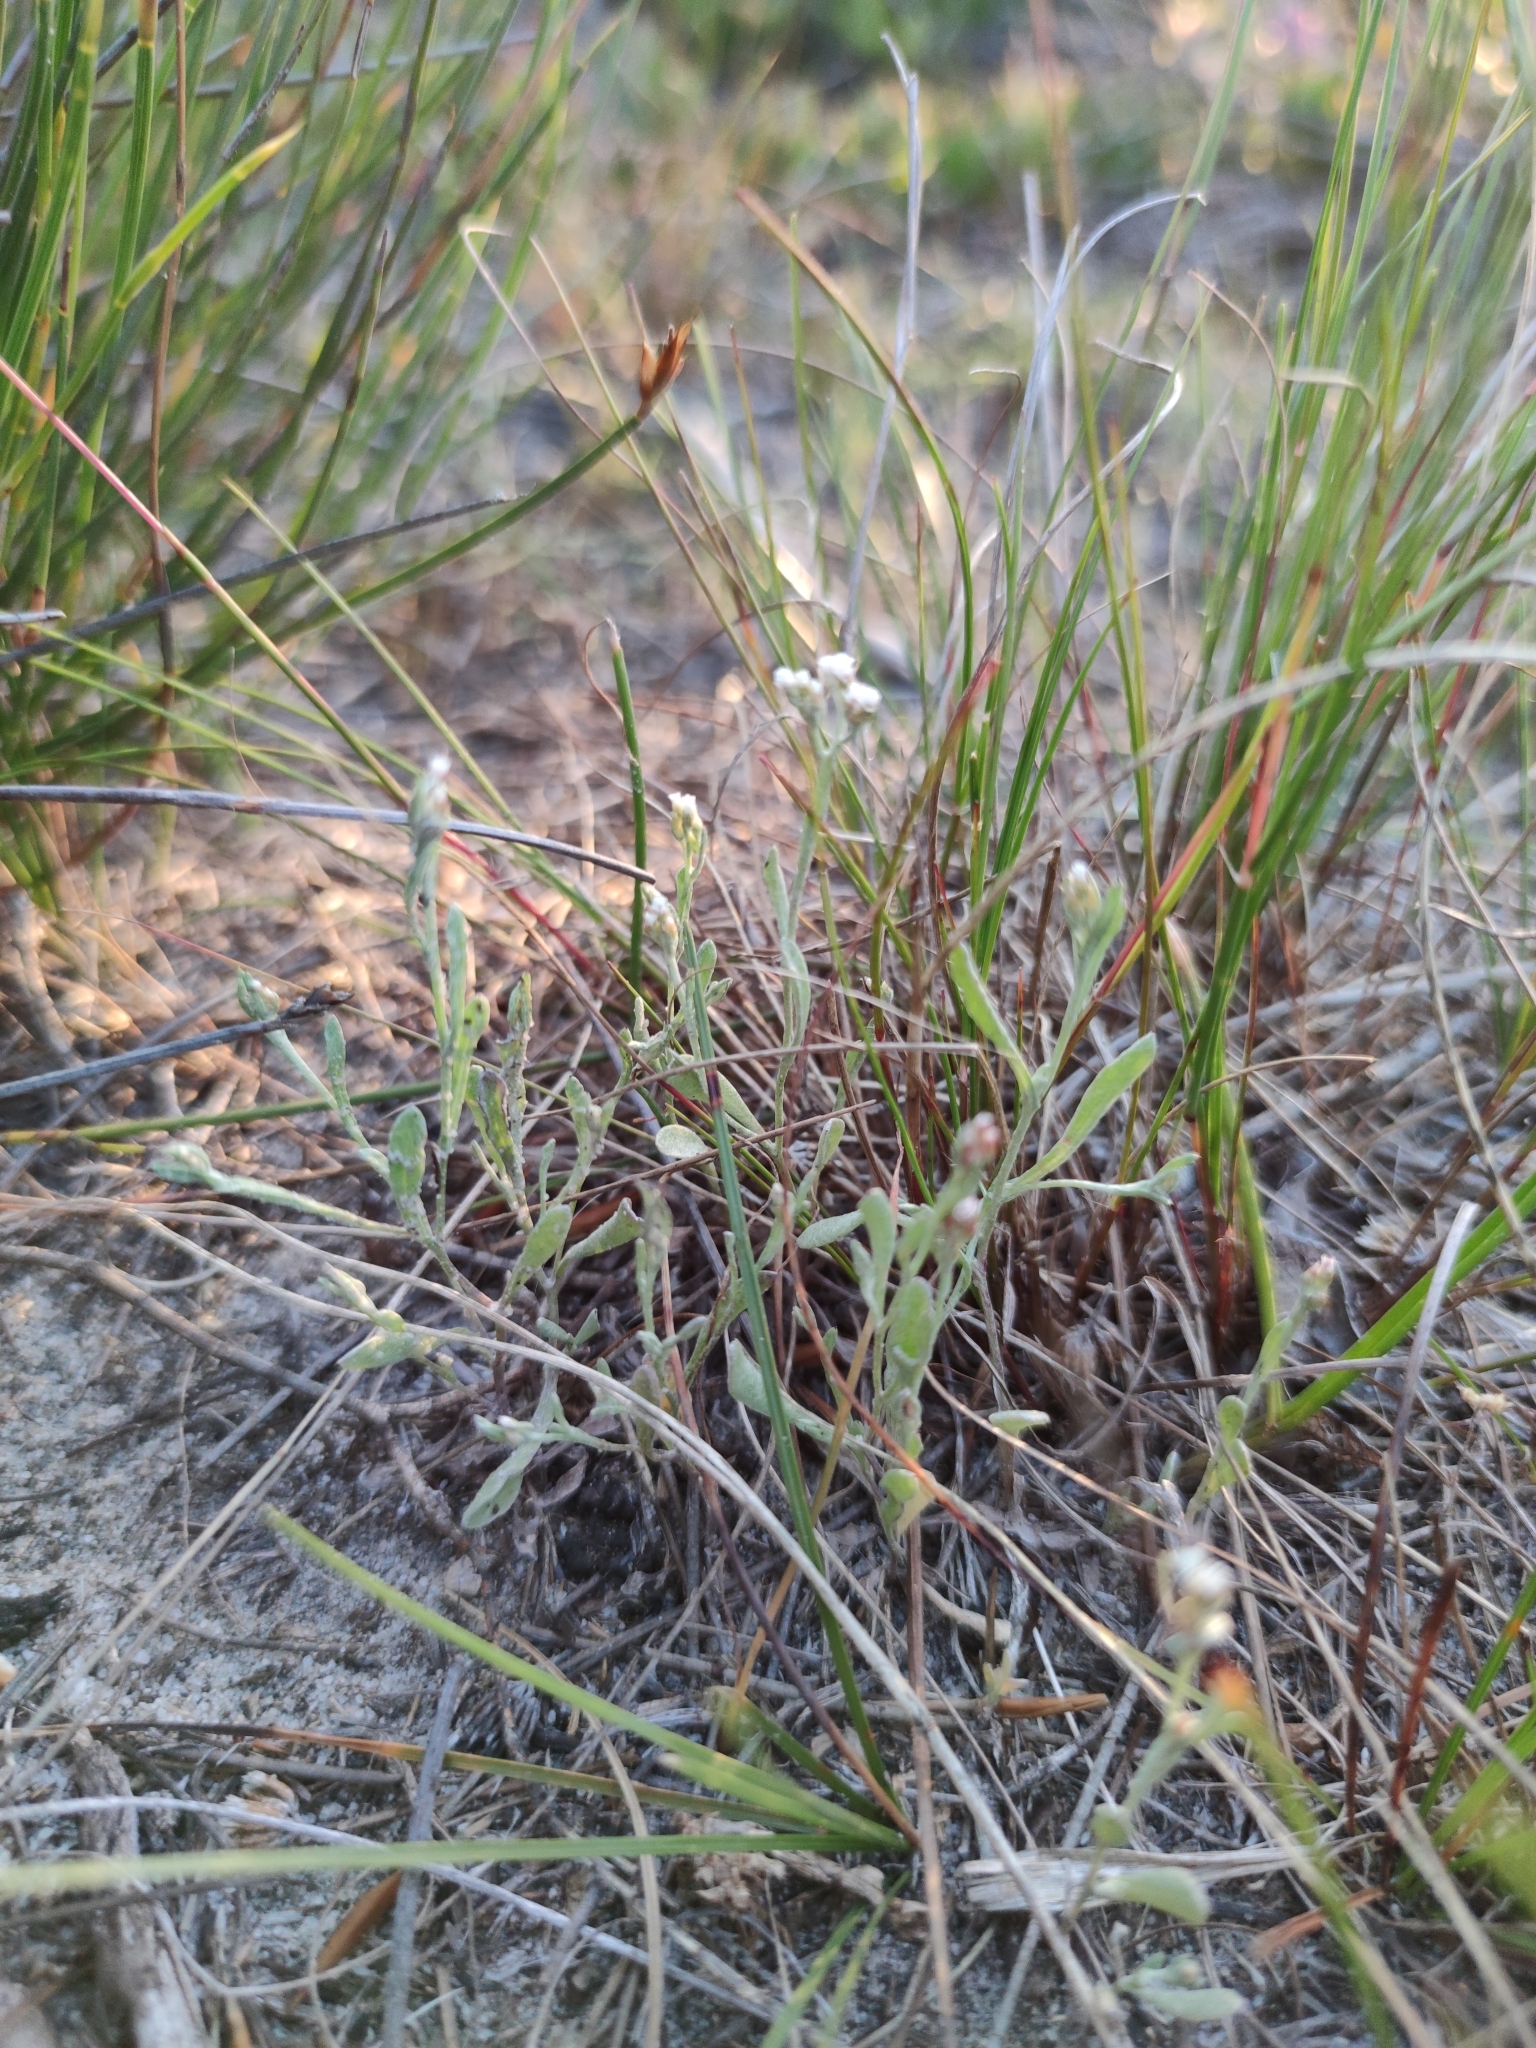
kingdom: Plantae
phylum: Tracheophyta
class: Magnoliopsida
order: Asterales
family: Asteraceae
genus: Helichrysum
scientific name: Helichrysum indicum
